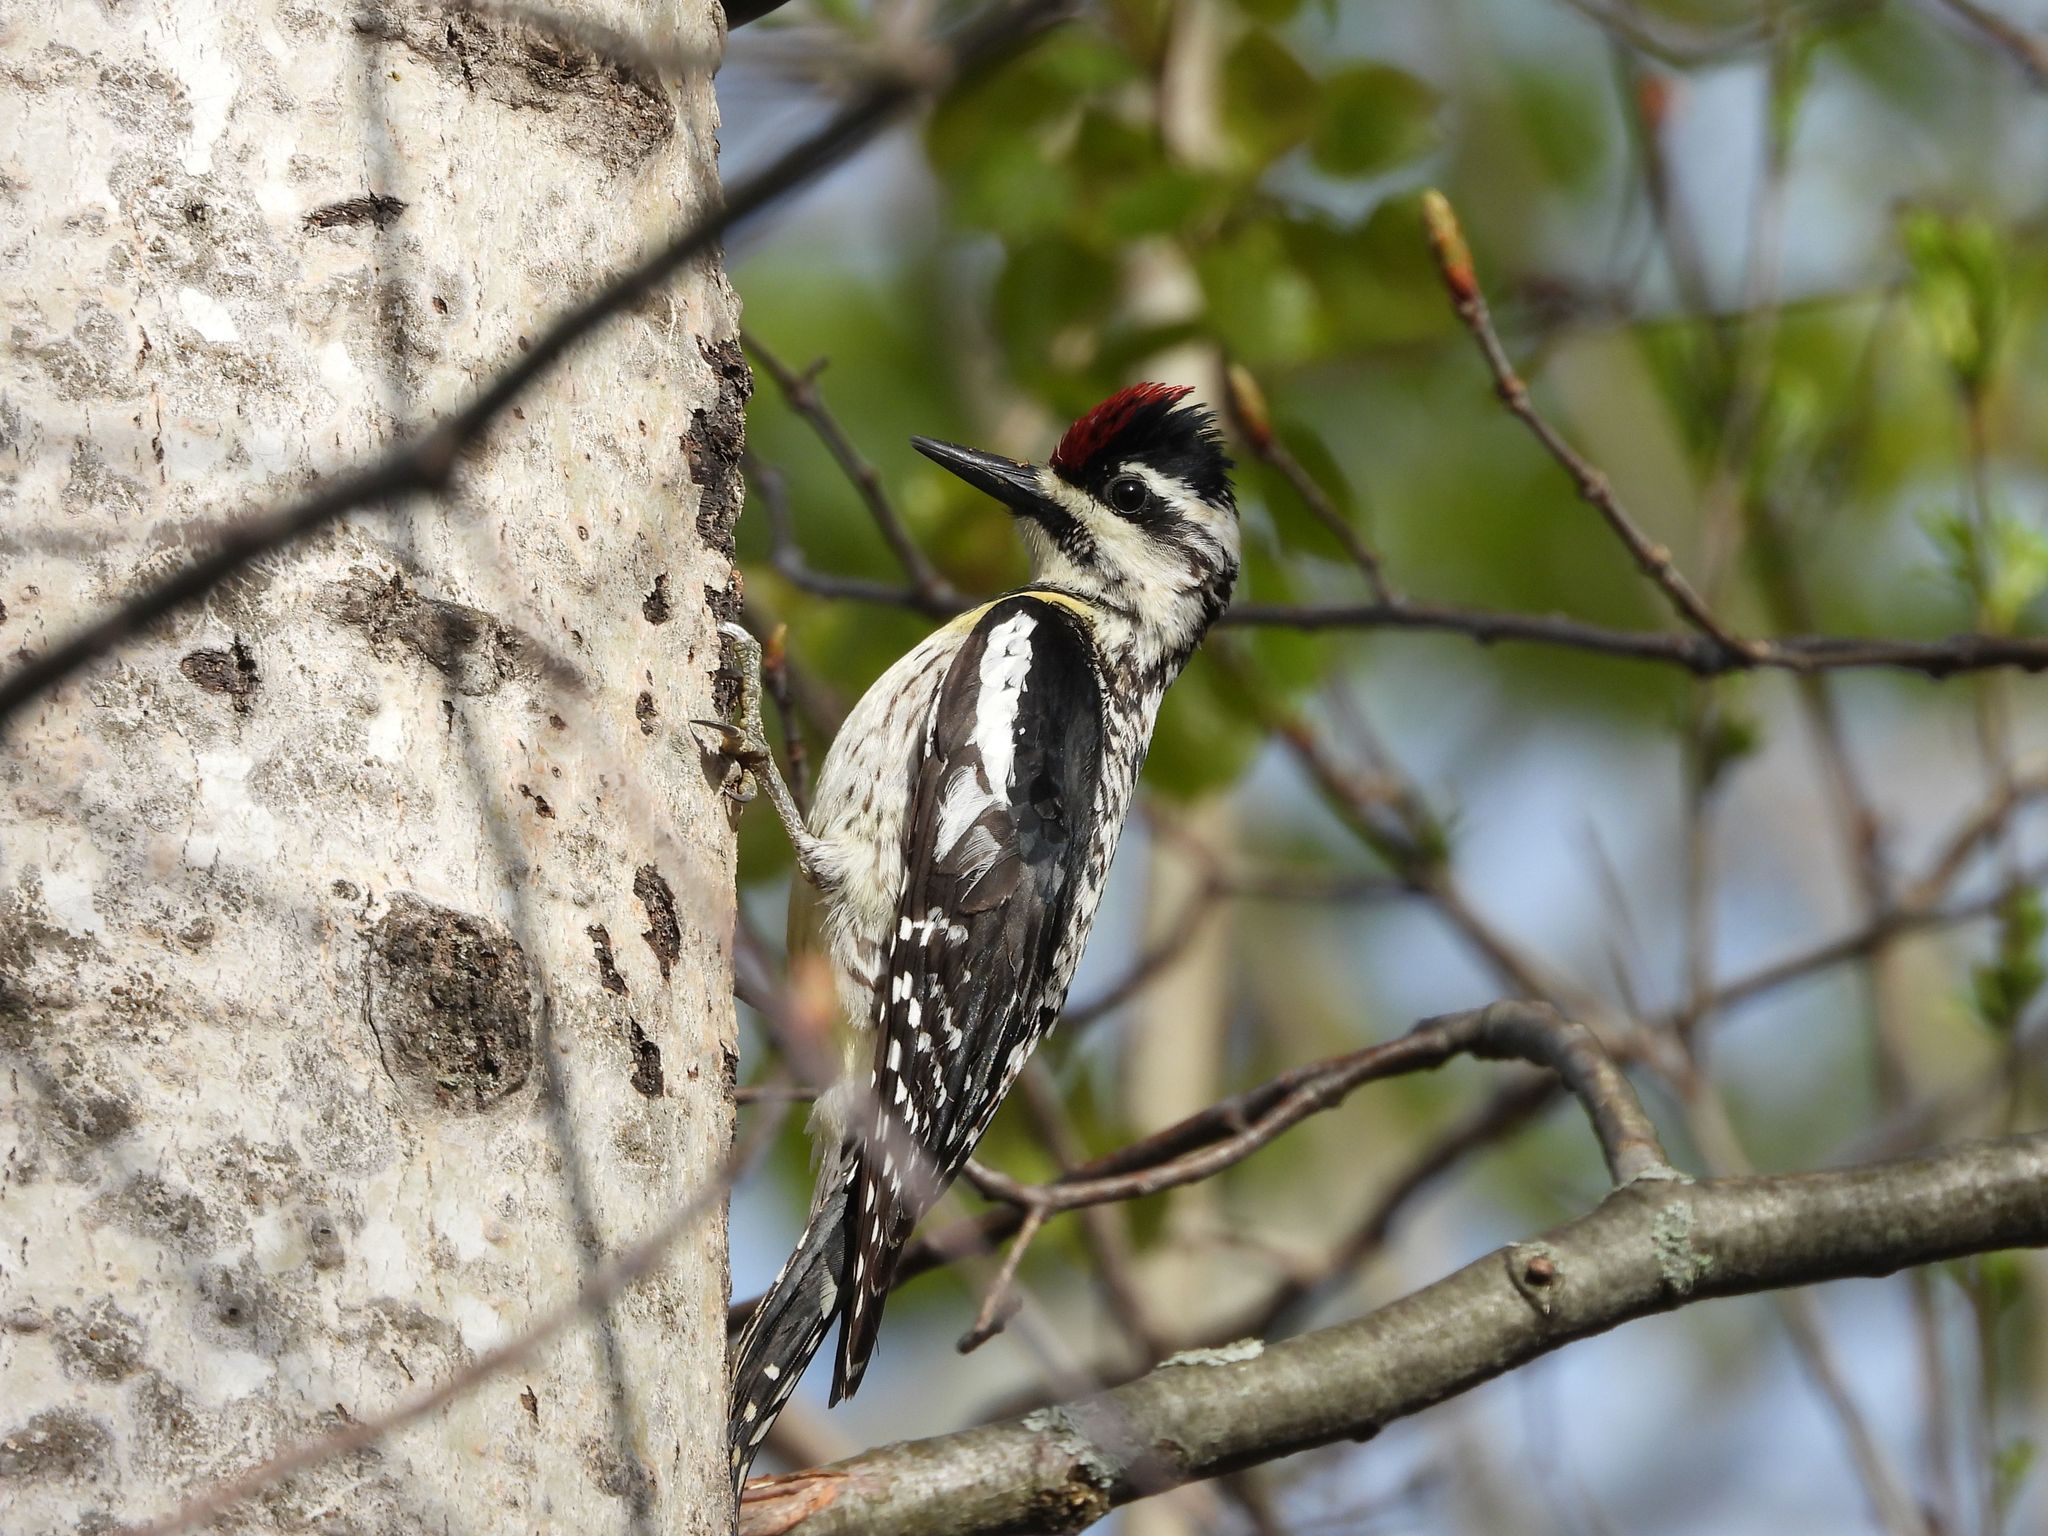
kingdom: Animalia
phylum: Chordata
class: Aves
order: Piciformes
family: Picidae
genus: Sphyrapicus
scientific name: Sphyrapicus varius
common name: Yellow-bellied sapsucker
